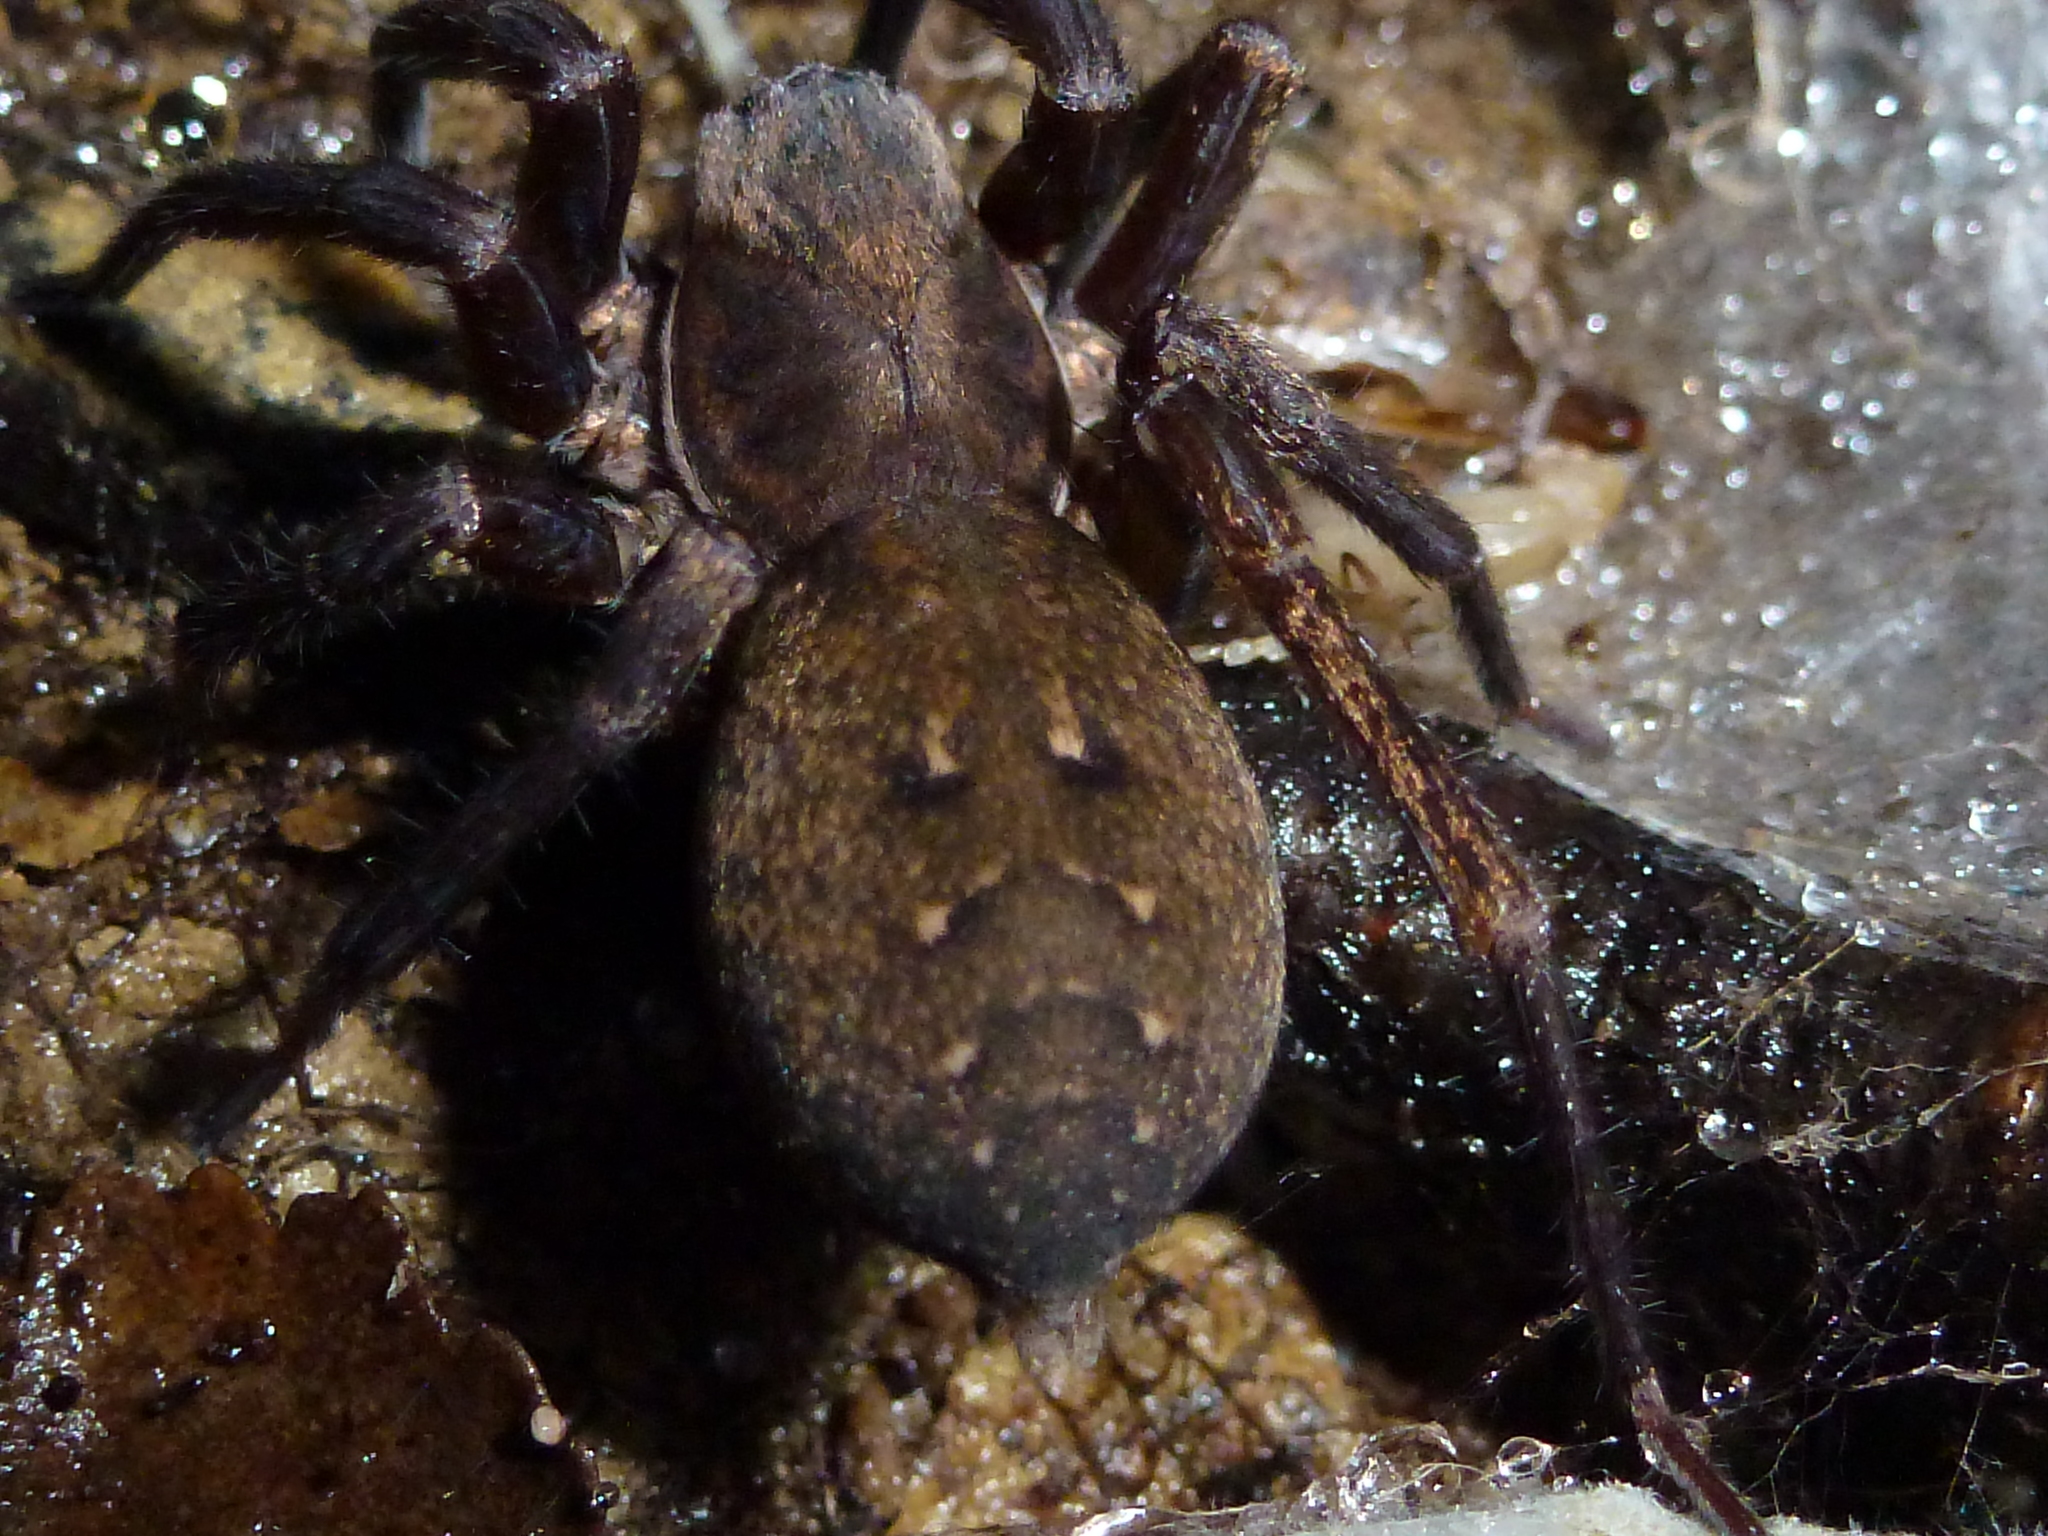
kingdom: Animalia
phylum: Arthropoda
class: Arachnida
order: Araneae
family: Zoropsidae
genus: Uliodon
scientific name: Uliodon albopunctatus
